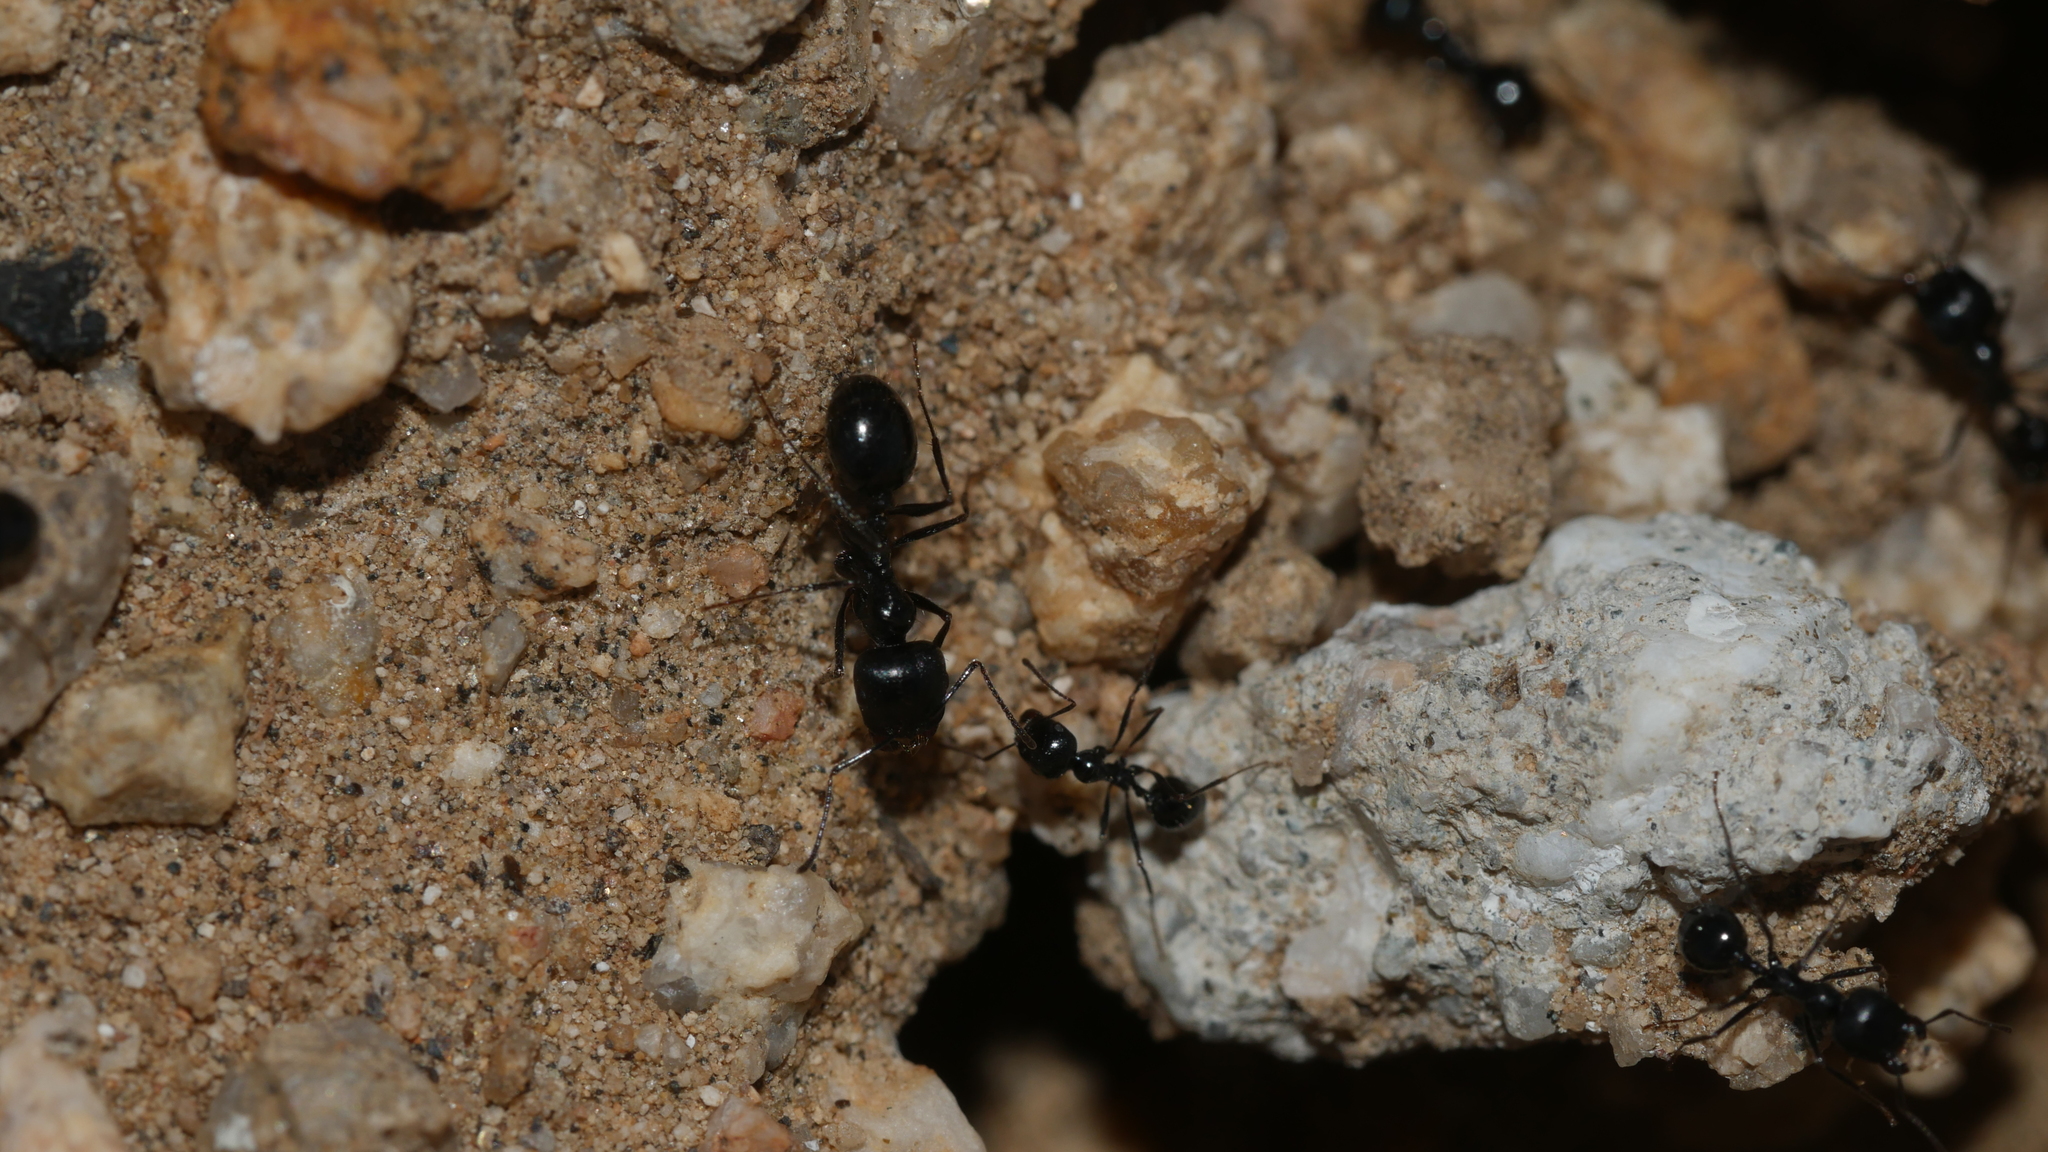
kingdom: Animalia
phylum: Arthropoda
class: Insecta
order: Hymenoptera
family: Formicidae
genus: Messor
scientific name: Messor pergandei
